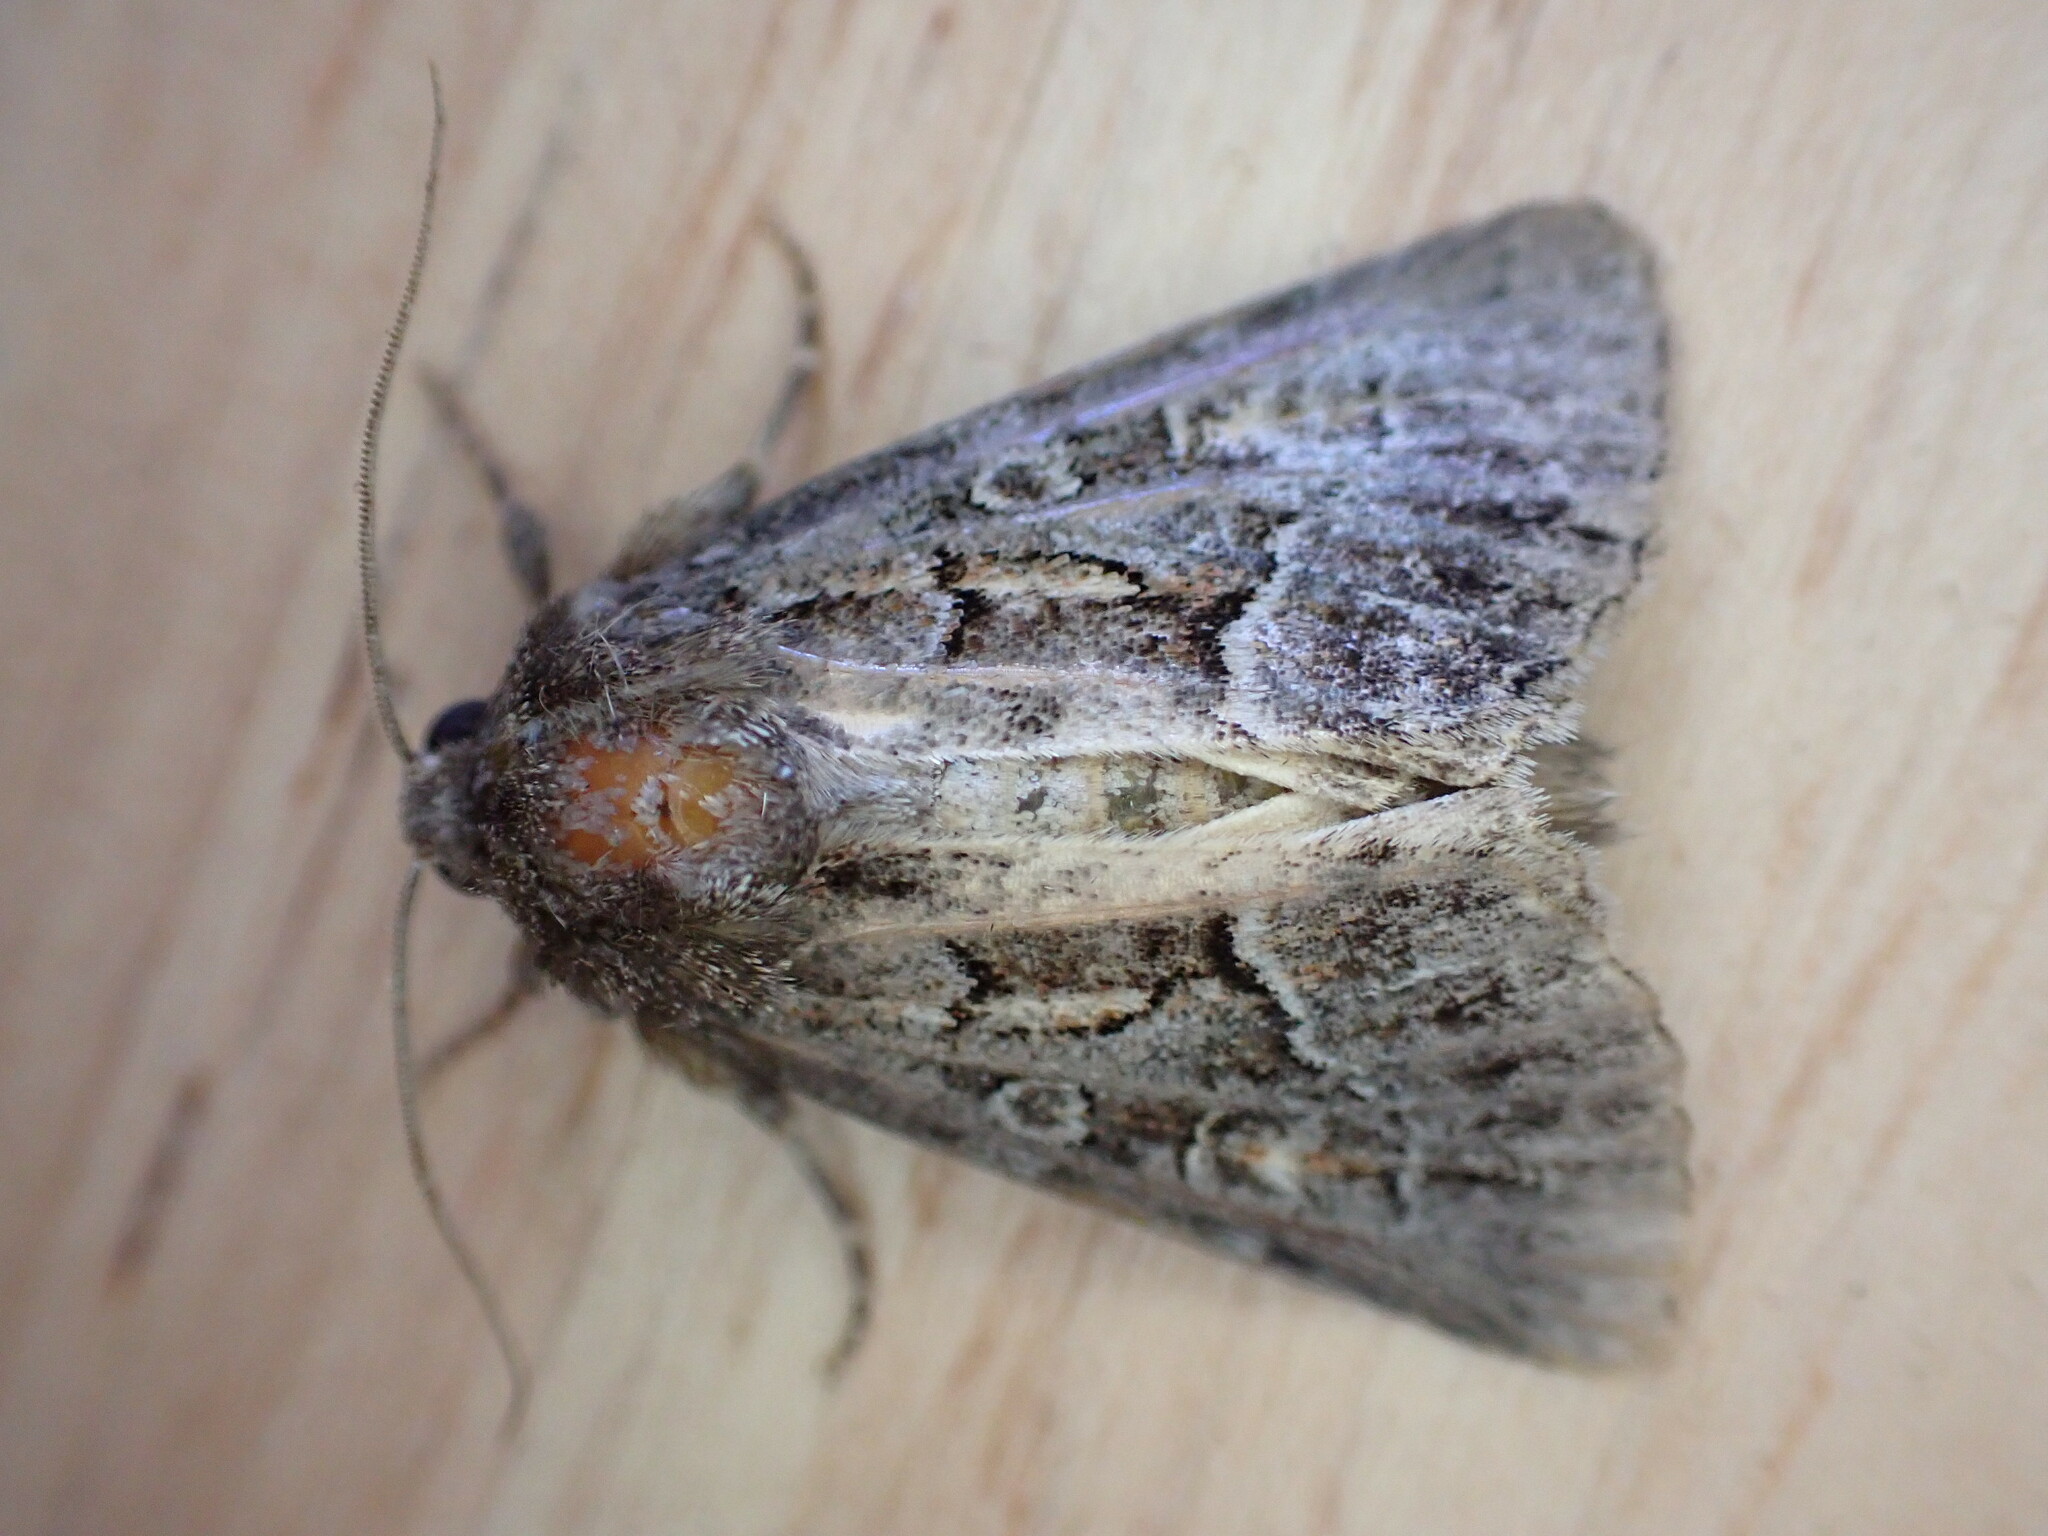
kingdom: Animalia
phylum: Arthropoda
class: Insecta
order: Lepidoptera
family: Noctuidae
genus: Thalpophila
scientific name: Thalpophila matura
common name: Straw underwing
